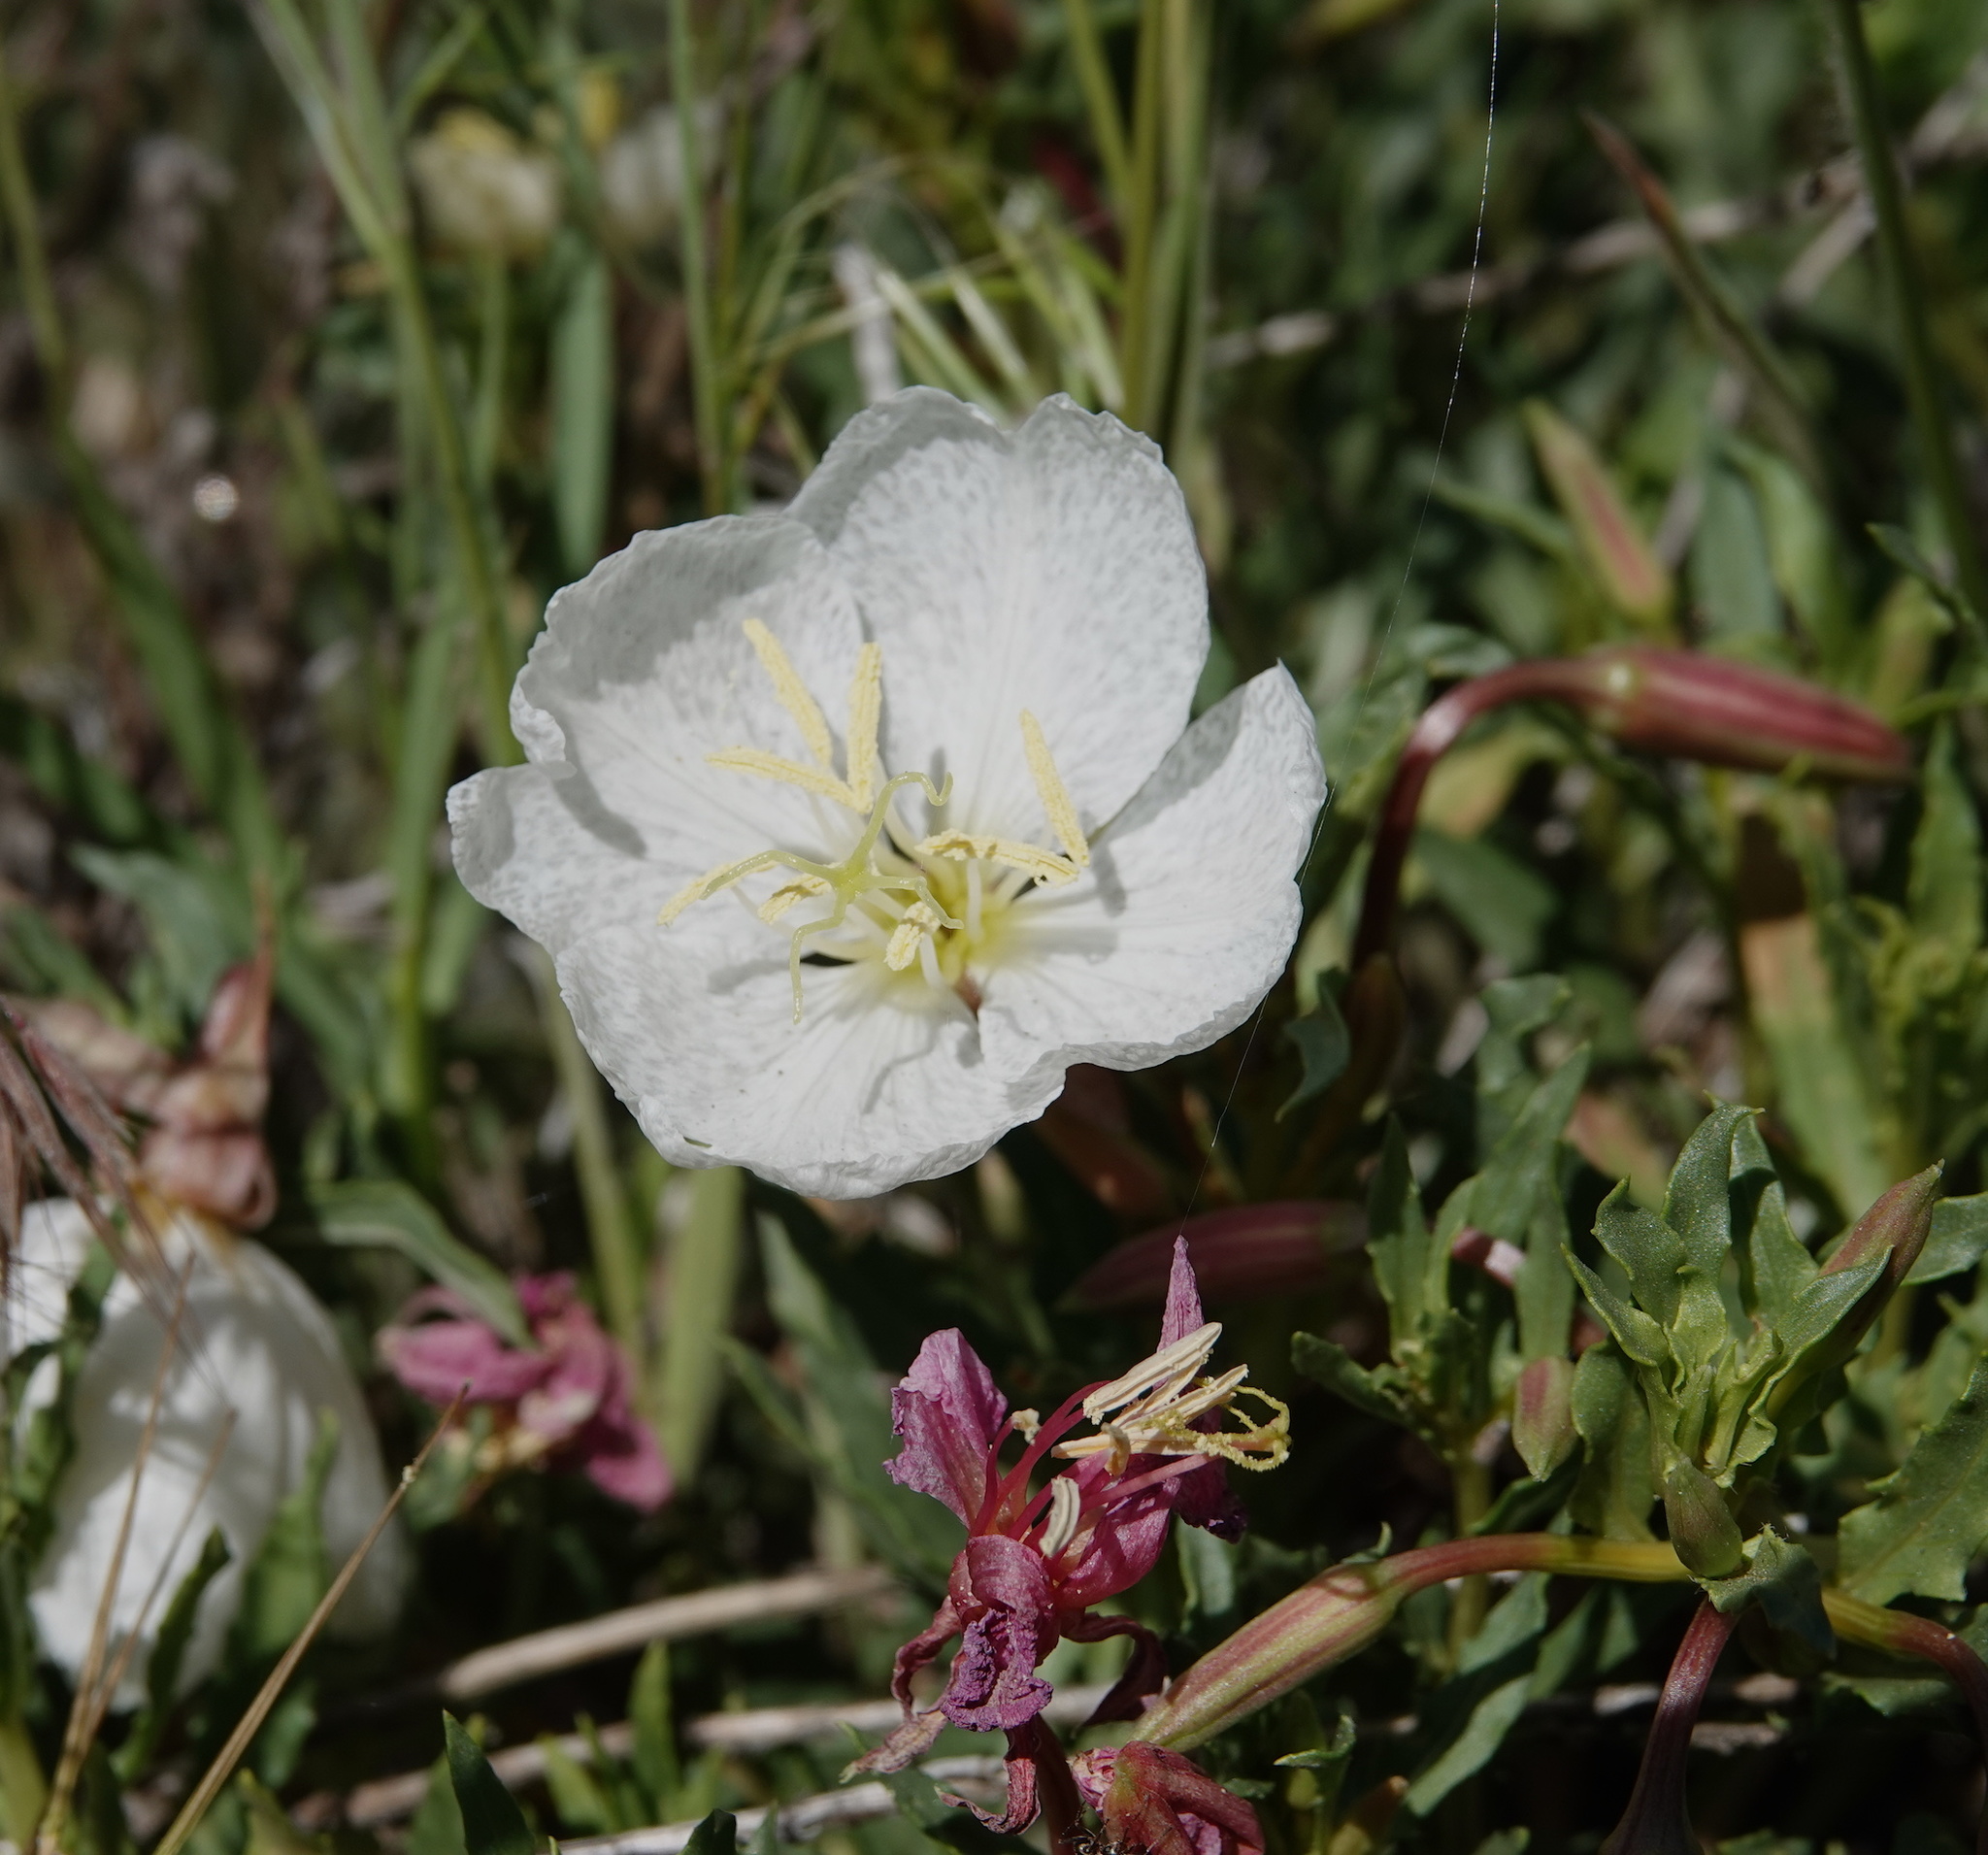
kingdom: Plantae
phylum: Tracheophyta
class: Magnoliopsida
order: Myrtales
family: Onagraceae
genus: Oenothera
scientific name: Oenothera californica
